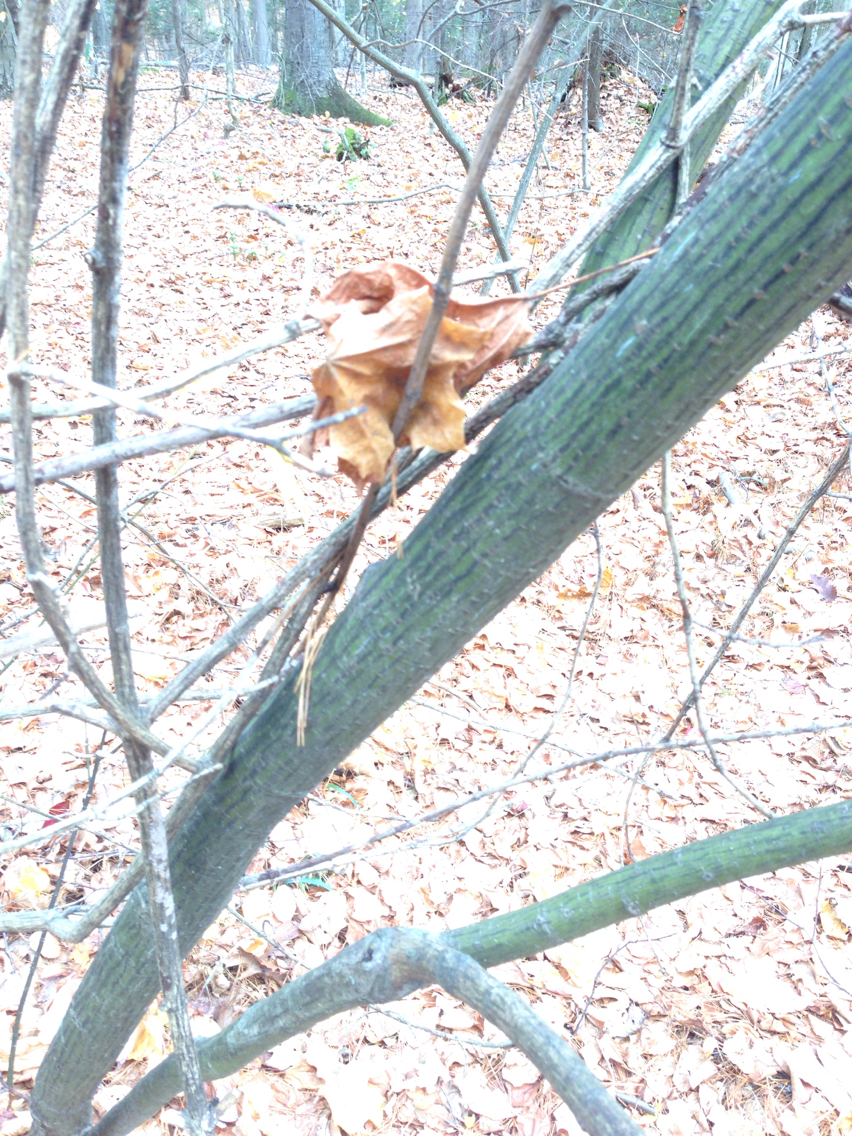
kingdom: Plantae
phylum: Tracheophyta
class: Magnoliopsida
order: Sapindales
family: Sapindaceae
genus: Acer
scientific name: Acer pensylvanicum
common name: Moosewood
